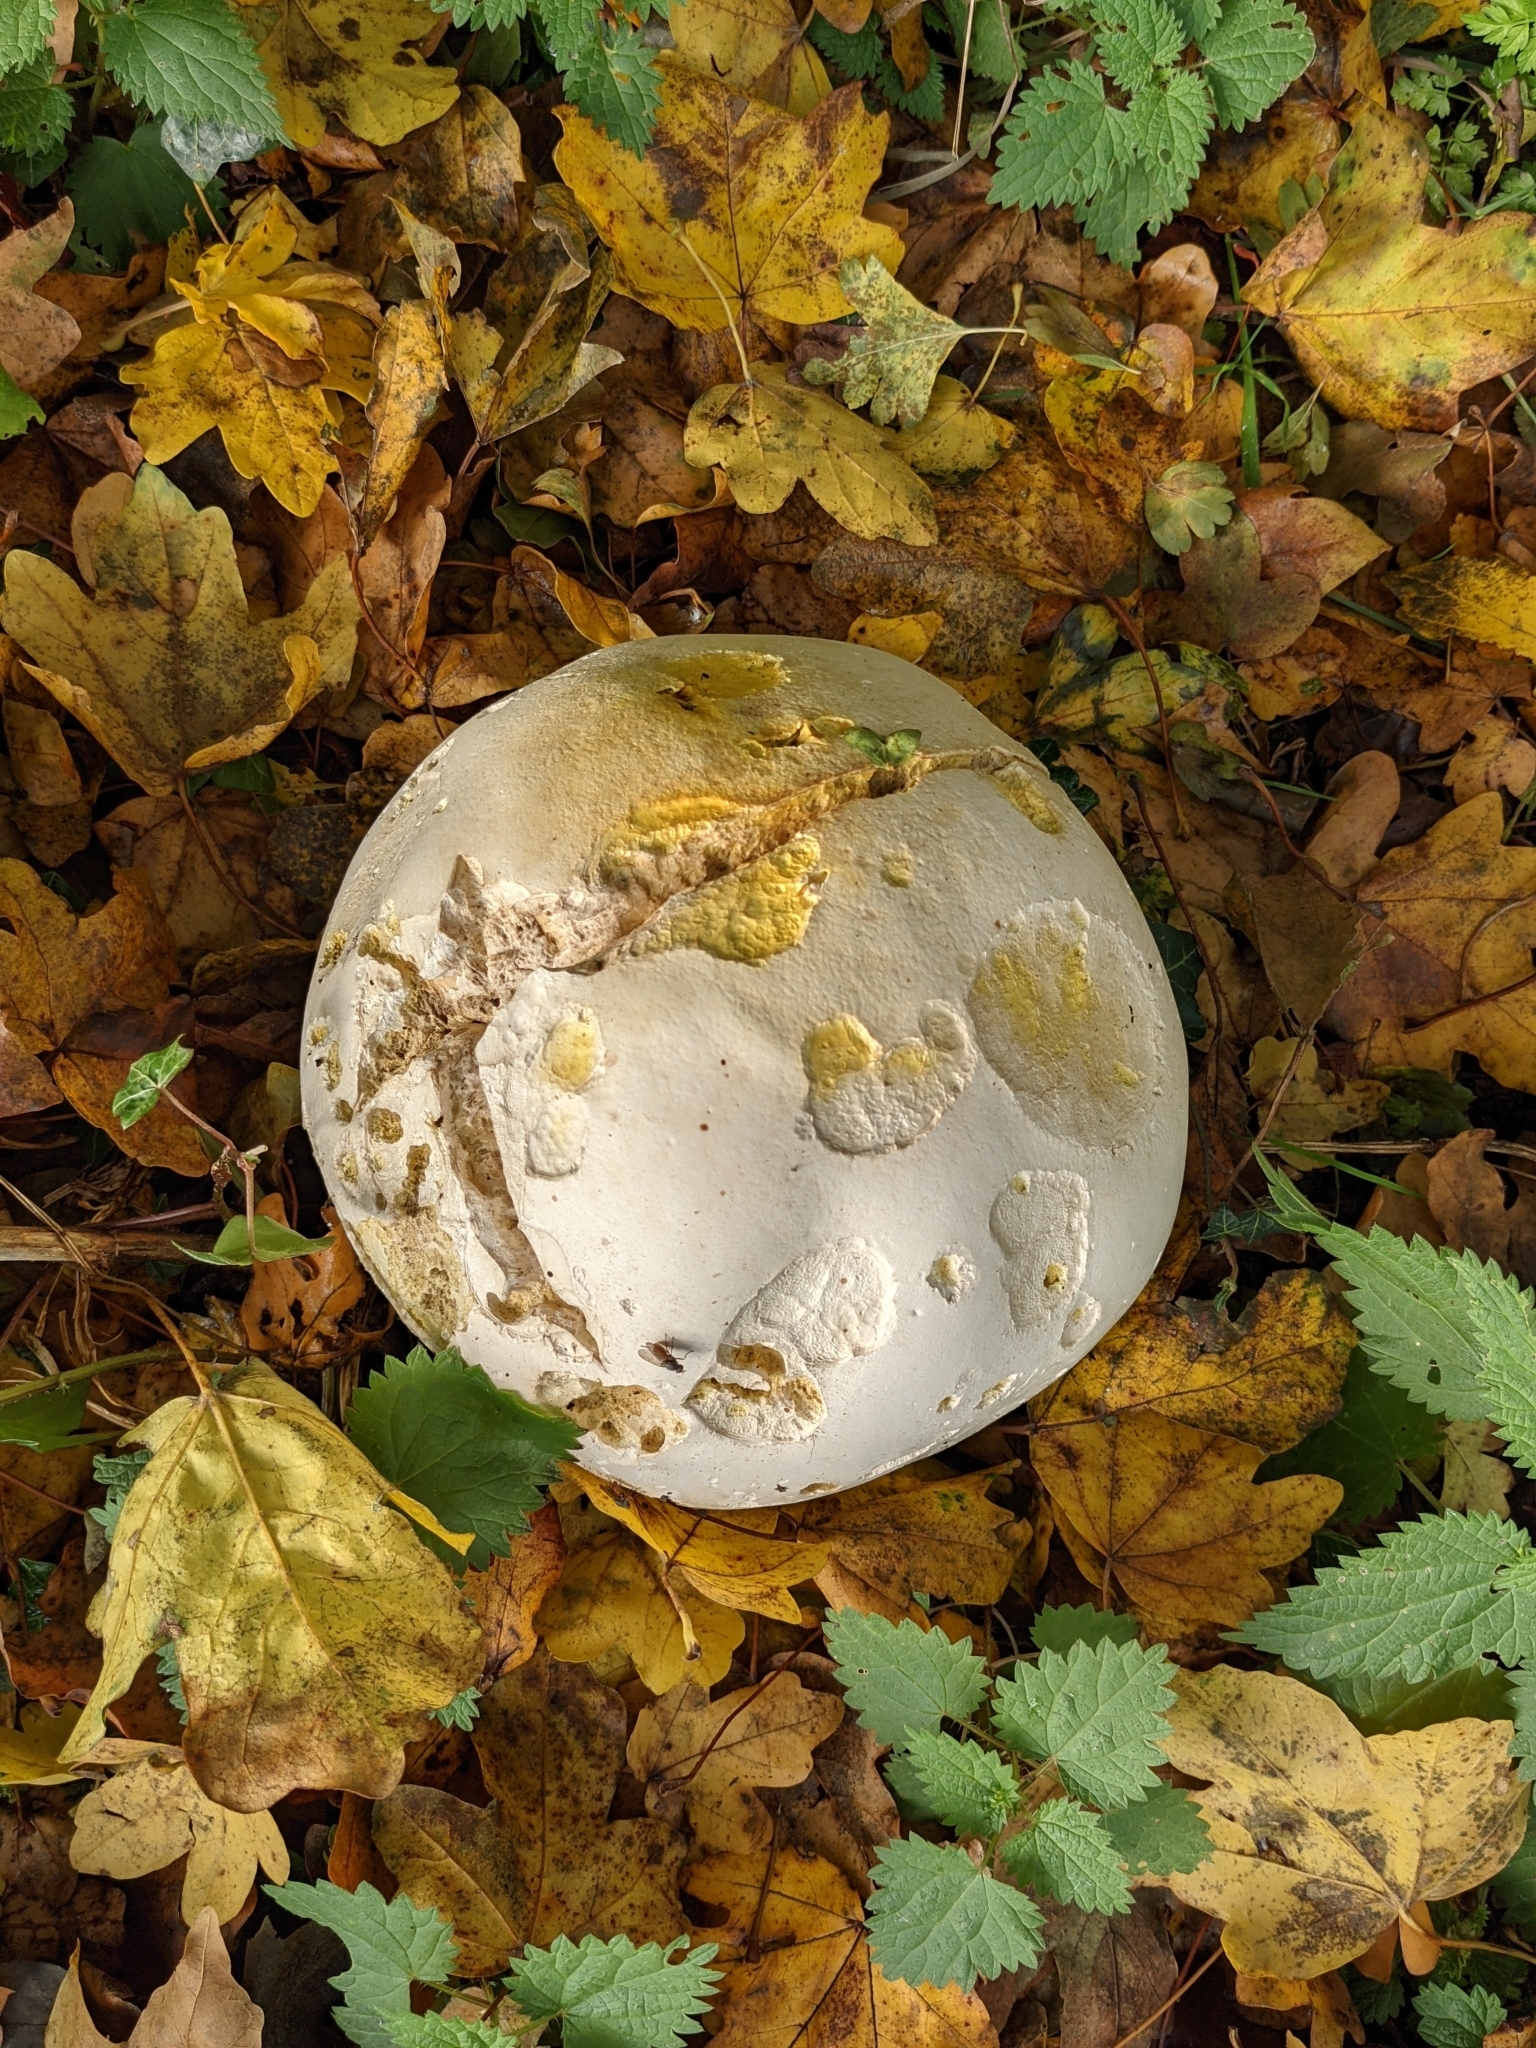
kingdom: Fungi
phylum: Basidiomycota
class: Agaricomycetes
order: Agaricales
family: Lycoperdaceae
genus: Calvatia
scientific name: Calvatia gigantea
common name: Giant puffball
